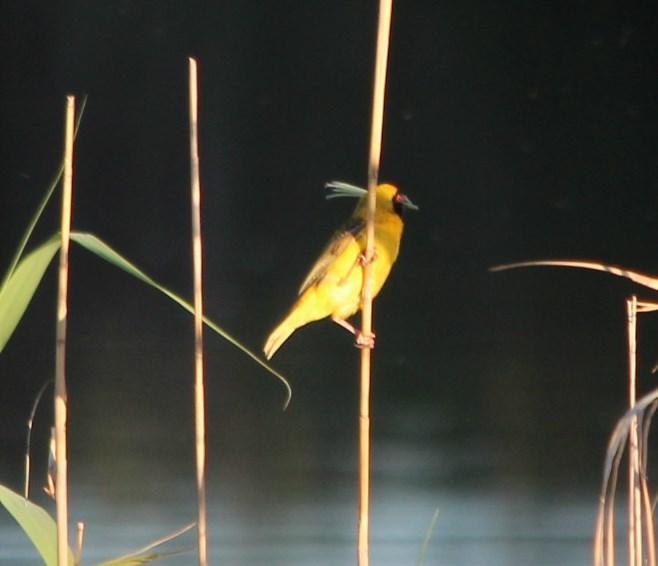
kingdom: Animalia
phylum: Chordata
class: Aves
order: Passeriformes
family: Ploceidae
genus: Ploceus
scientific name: Ploceus velatus
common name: Southern masked weaver
